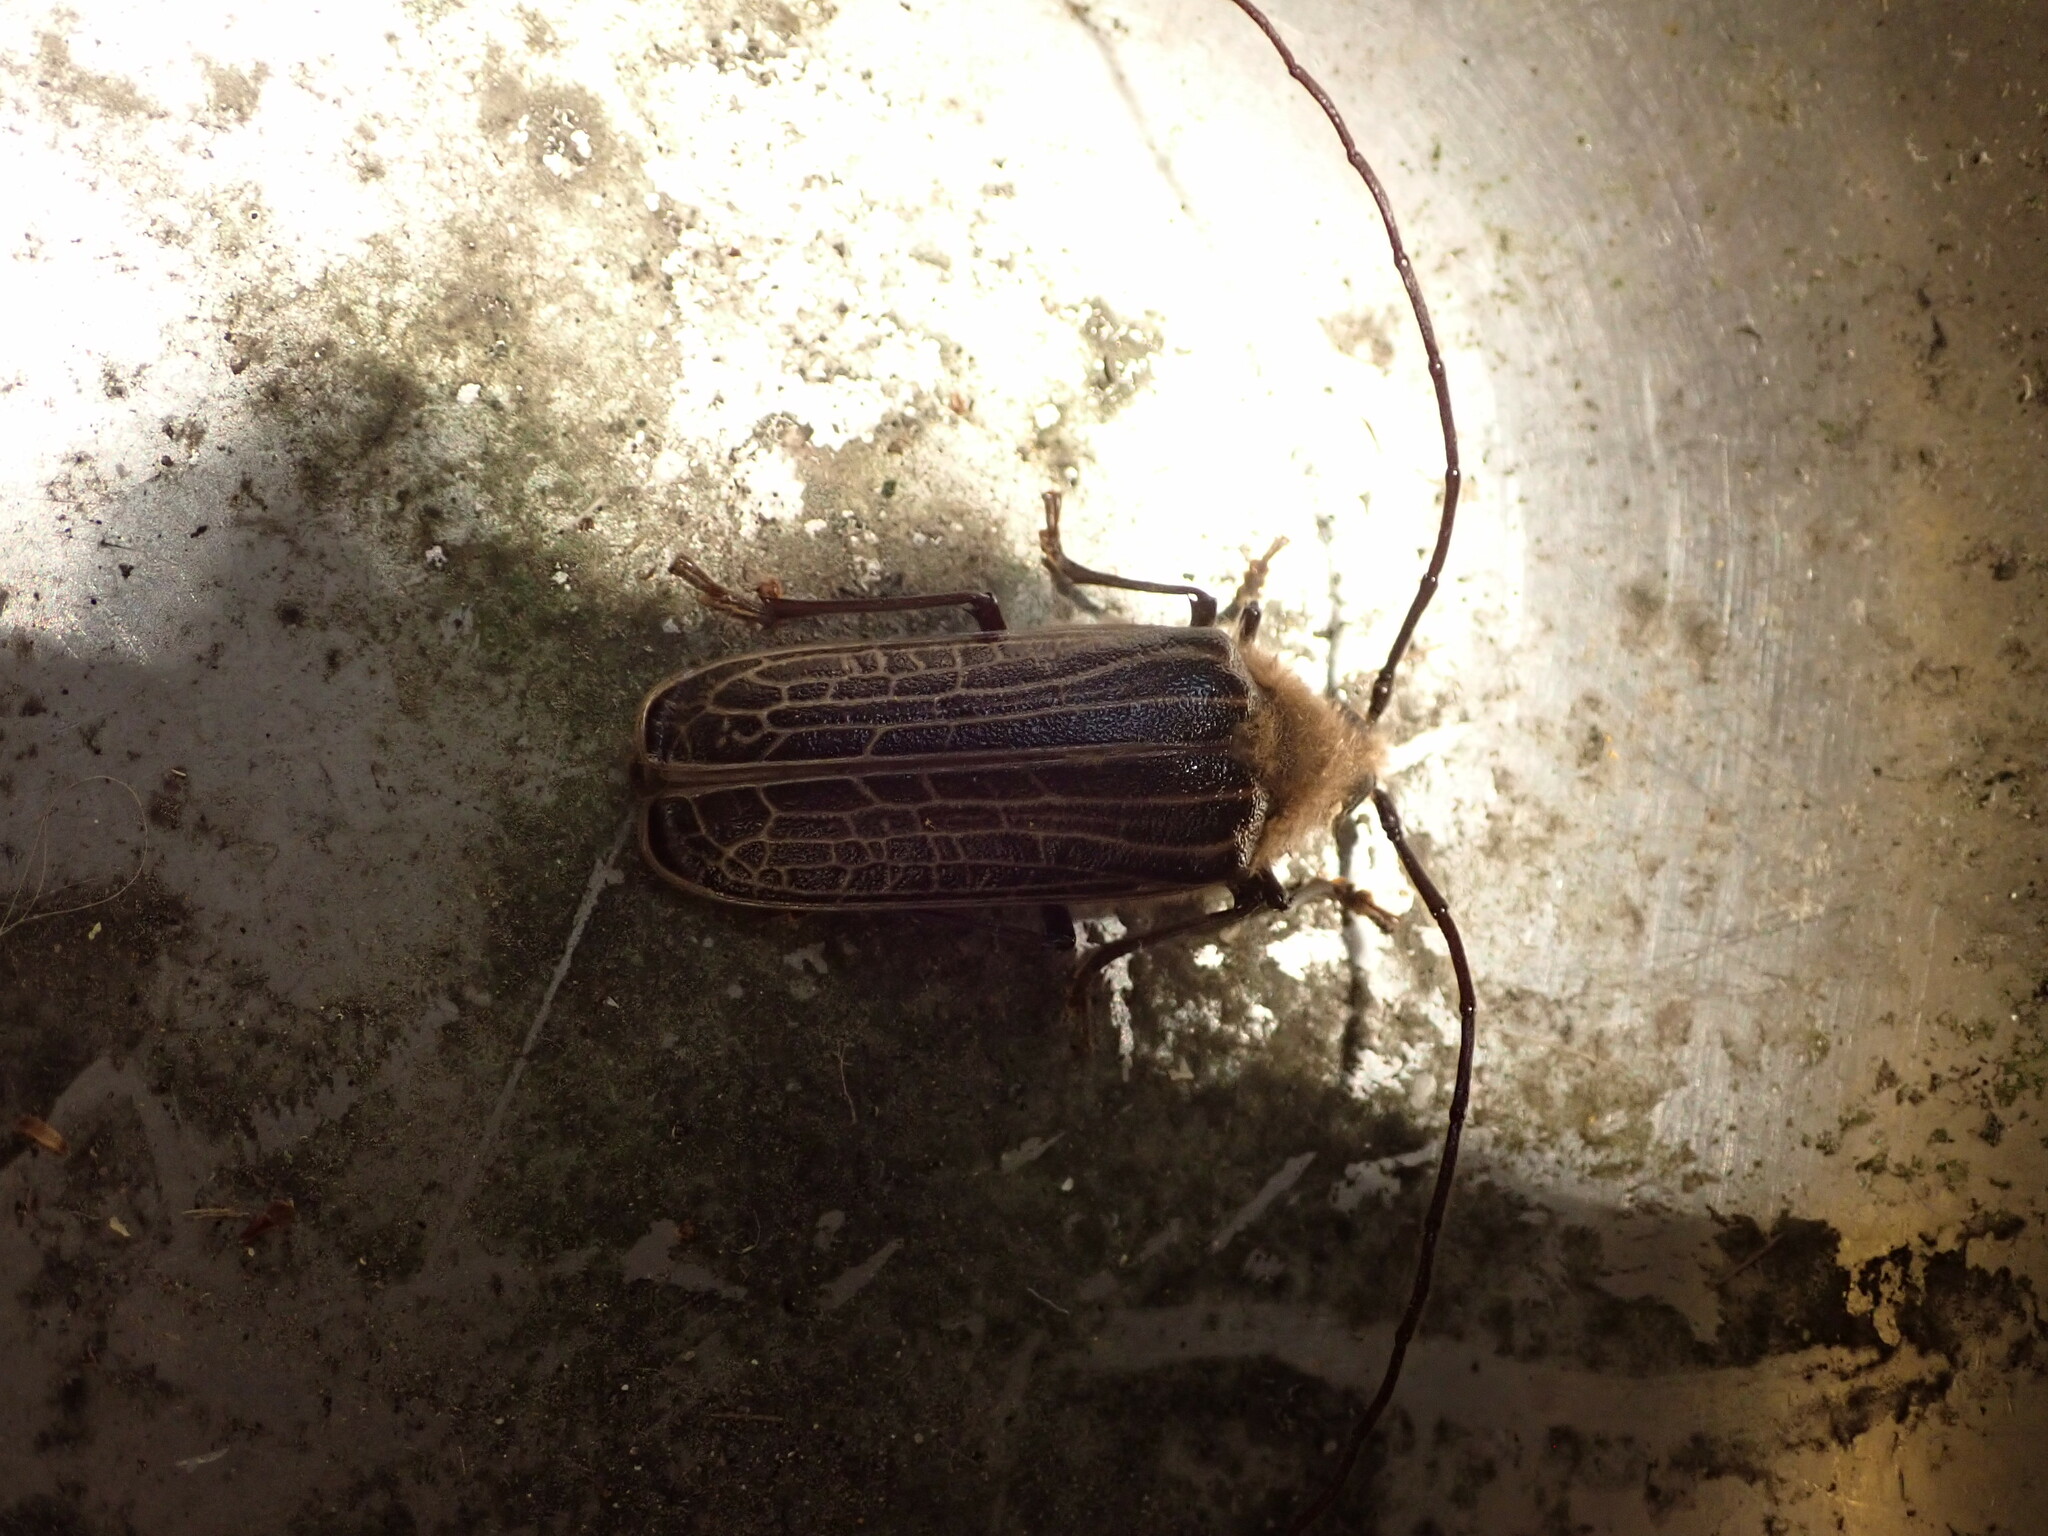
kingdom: Animalia
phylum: Arthropoda
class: Insecta
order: Coleoptera
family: Cerambycidae
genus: Prionoplus
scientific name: Prionoplus reticularis
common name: Huhu beetle
